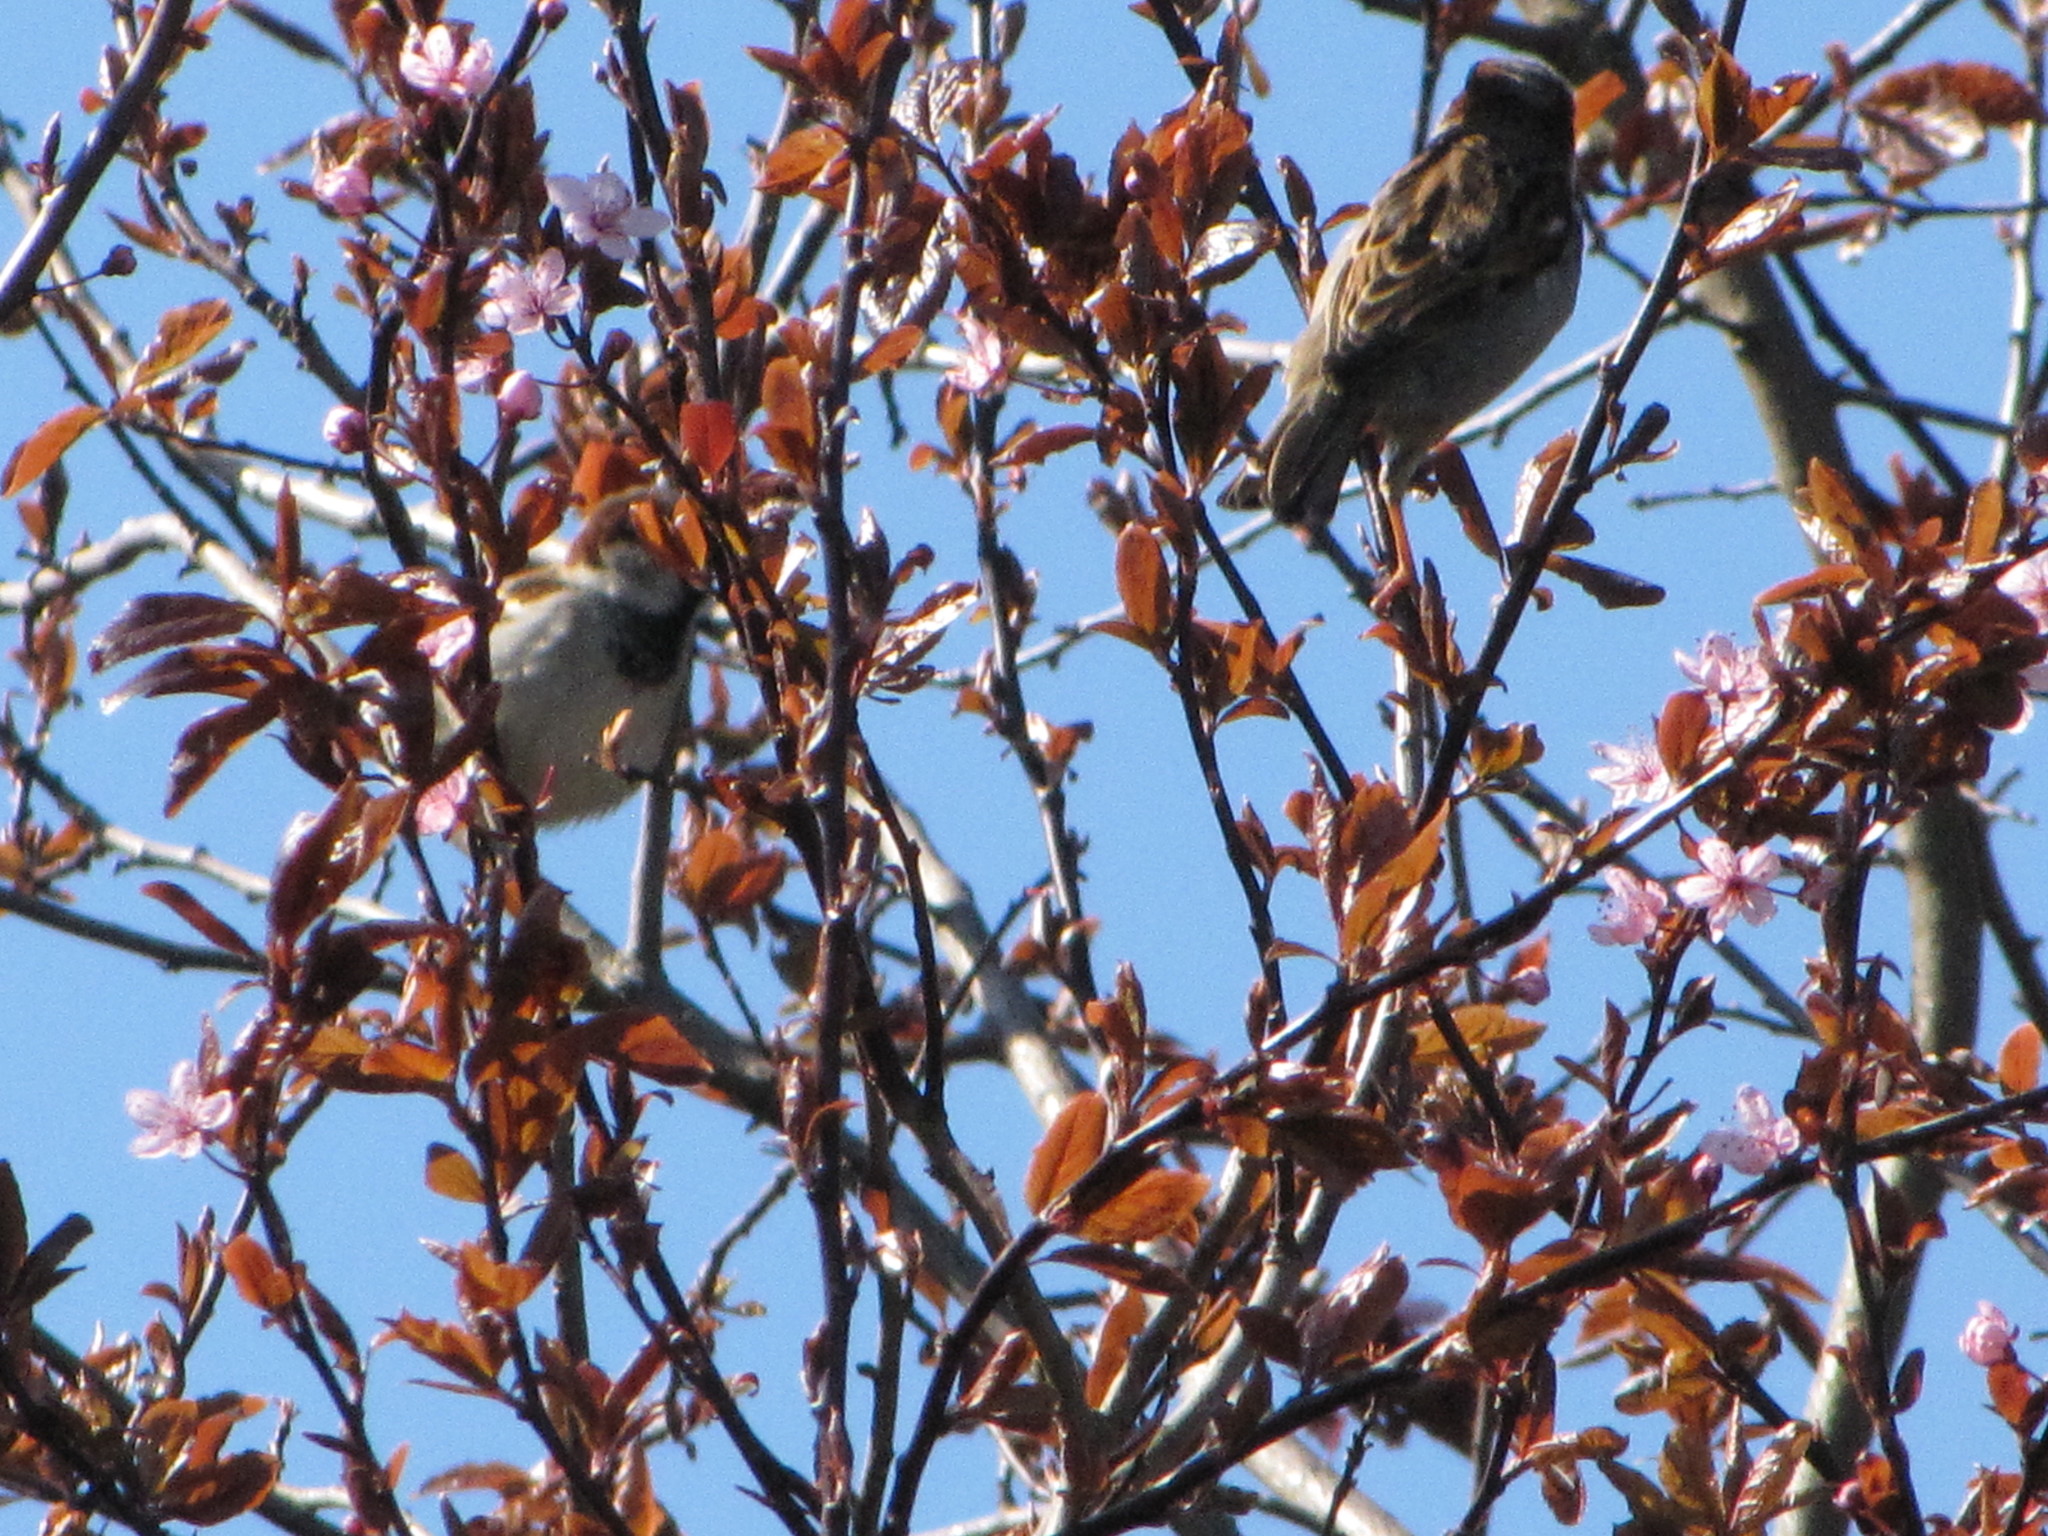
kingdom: Animalia
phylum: Chordata
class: Aves
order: Passeriformes
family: Passeridae
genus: Passer
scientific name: Passer domesticus
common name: House sparrow
